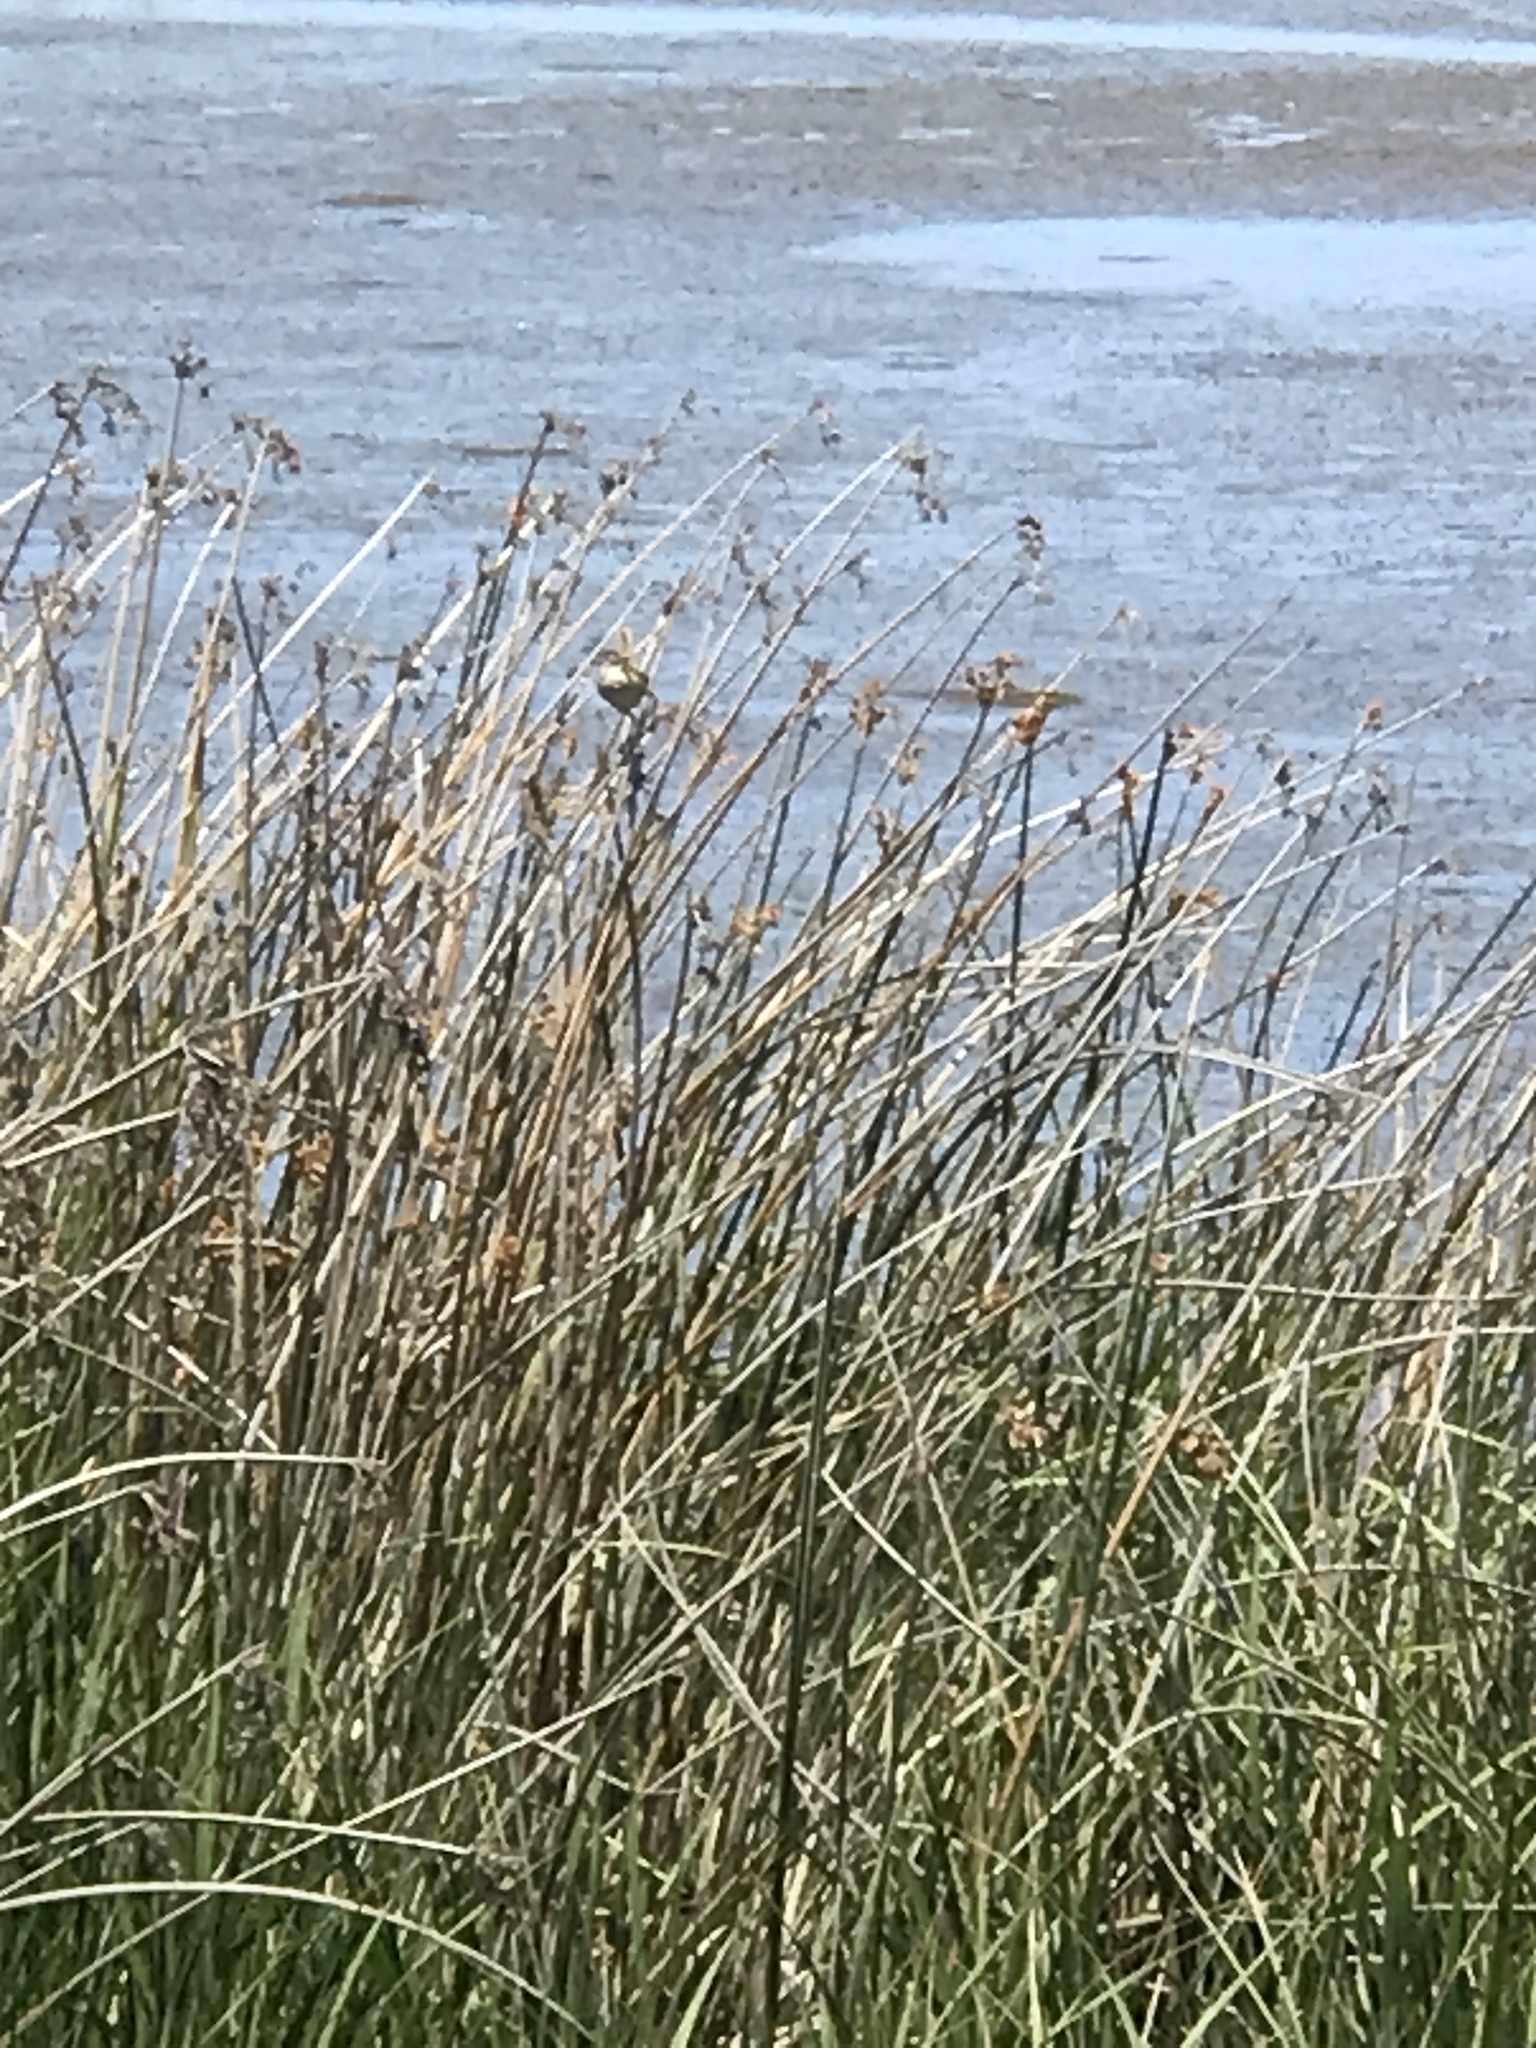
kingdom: Animalia
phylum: Chordata
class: Aves
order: Passeriformes
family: Troglodytidae
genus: Cistothorus
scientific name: Cistothorus palustris
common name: Marsh wren
